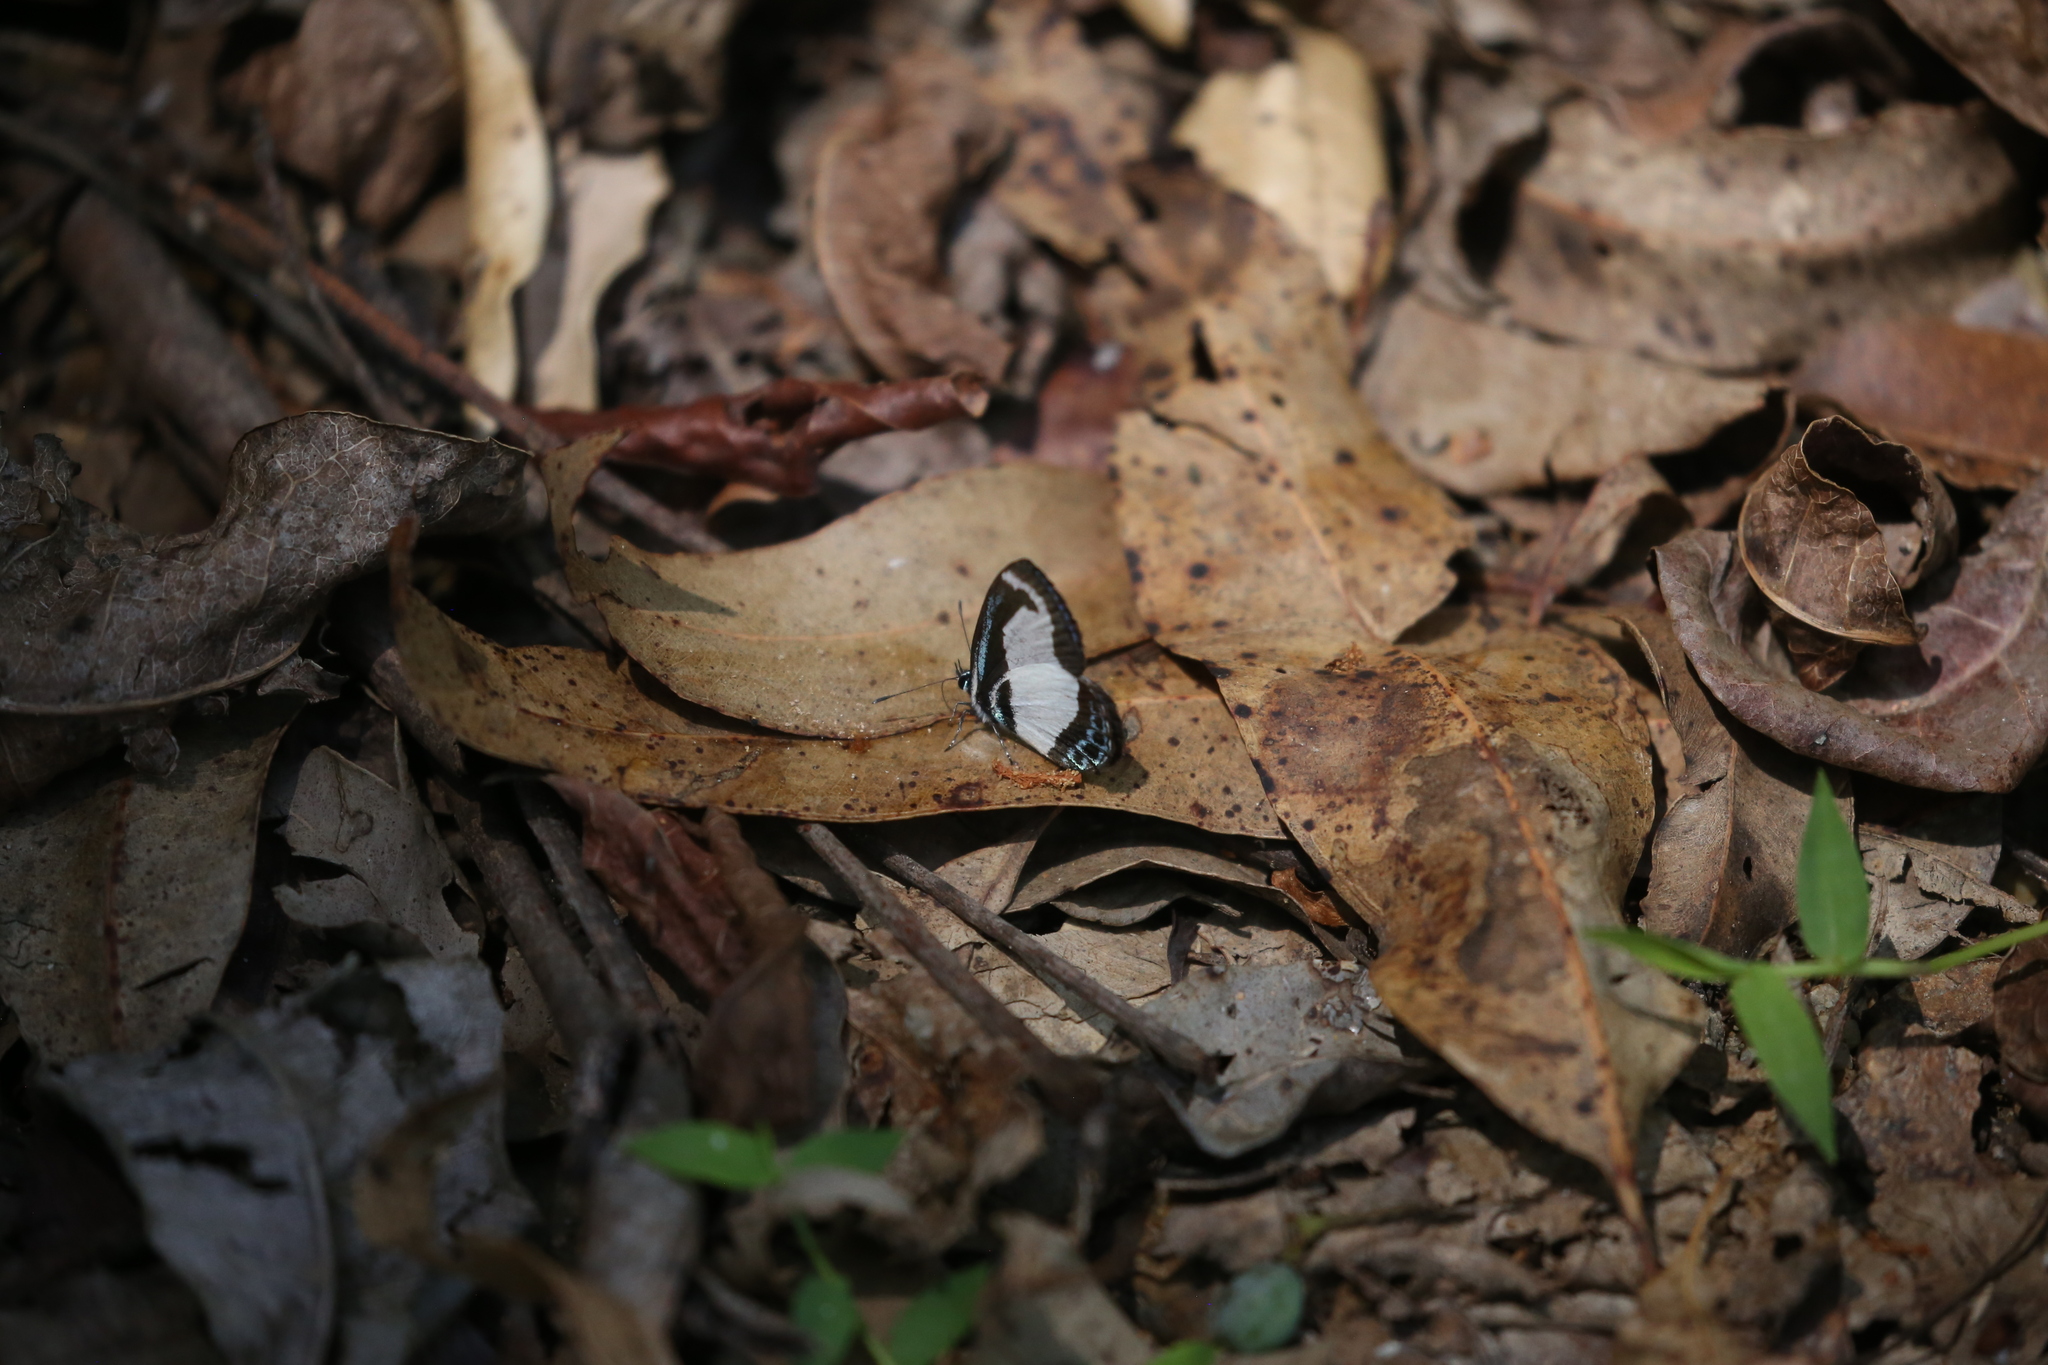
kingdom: Animalia
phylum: Arthropoda
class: Insecta
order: Lepidoptera
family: Lycaenidae
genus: Psychonotis
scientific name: Psychonotis caelius
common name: Small green banded blue
